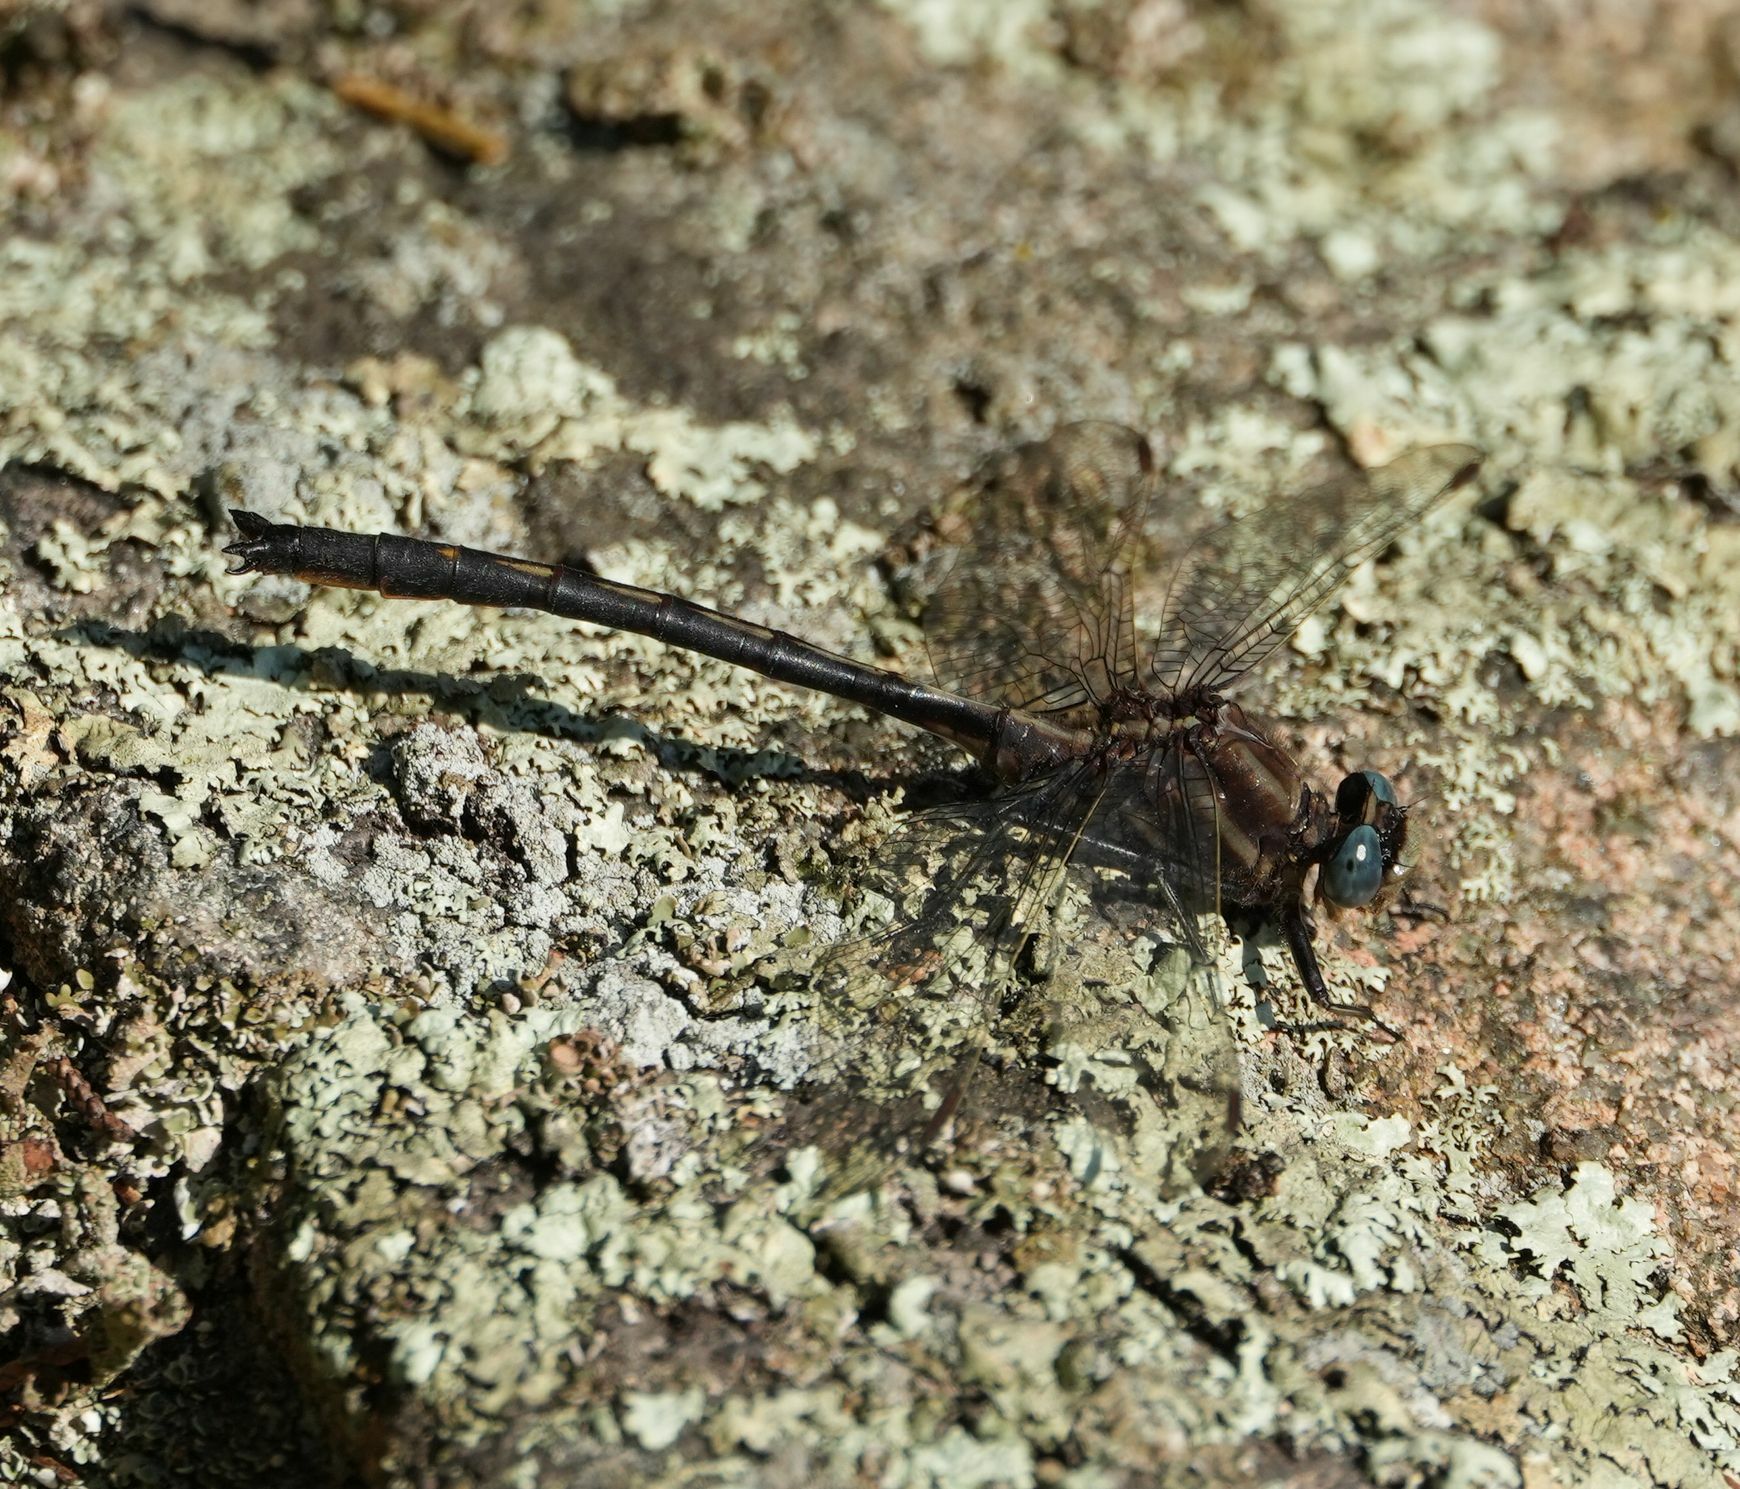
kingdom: Animalia
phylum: Arthropoda
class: Insecta
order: Odonata
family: Gomphidae
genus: Phanogomphus
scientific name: Phanogomphus spicatus
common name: Dusky clubtail
